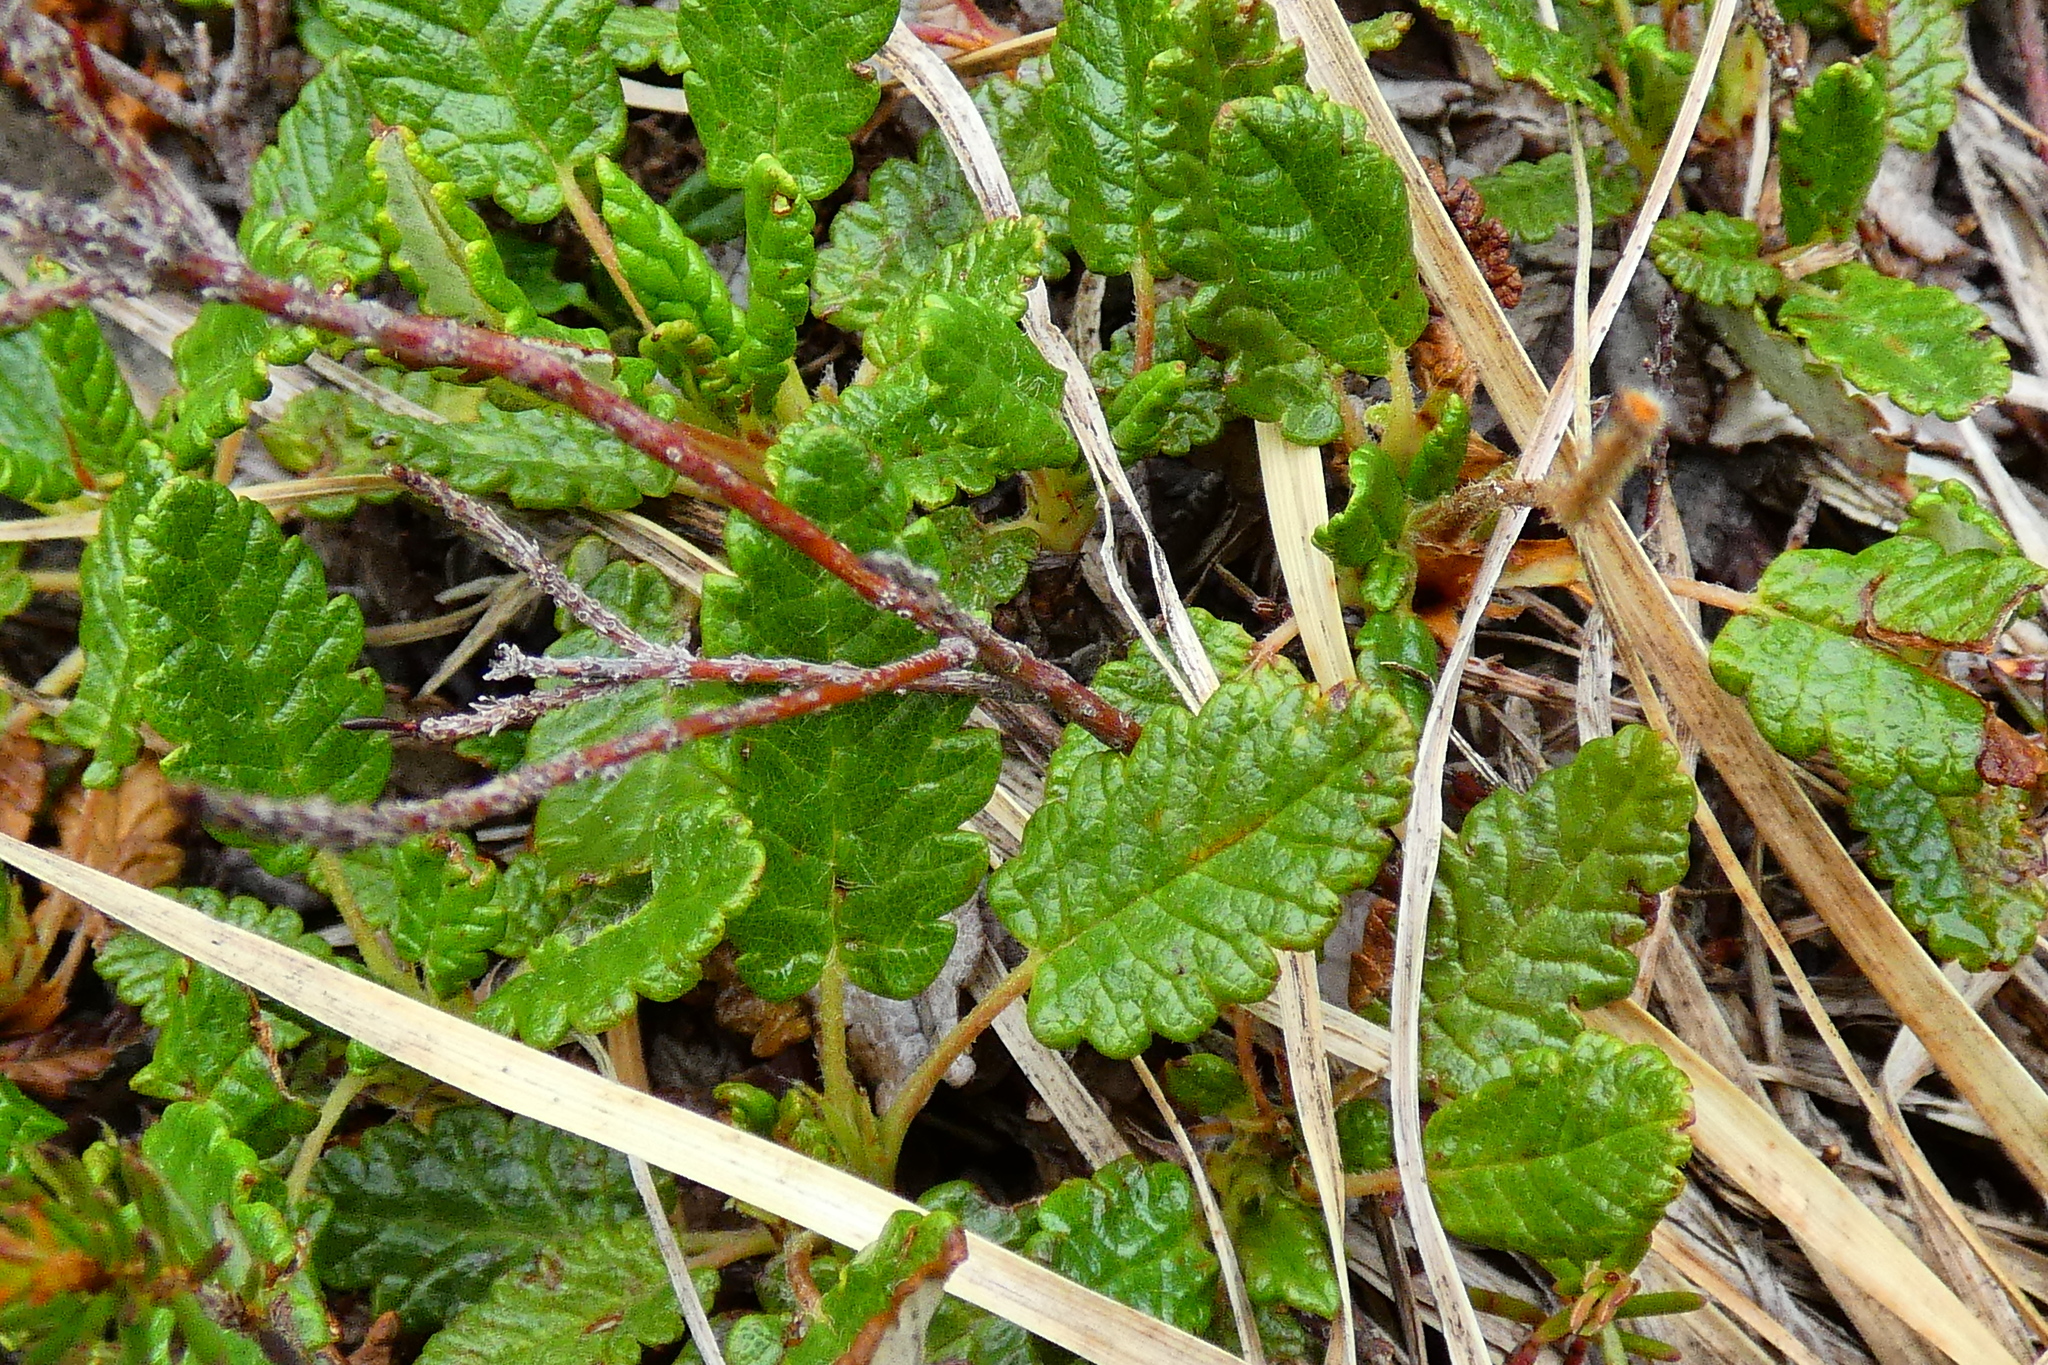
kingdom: Plantae
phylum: Tracheophyta
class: Magnoliopsida
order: Rosales
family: Rosaceae
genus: Dryas
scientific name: Dryas octopetala
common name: Eight-petal mountain-avens
